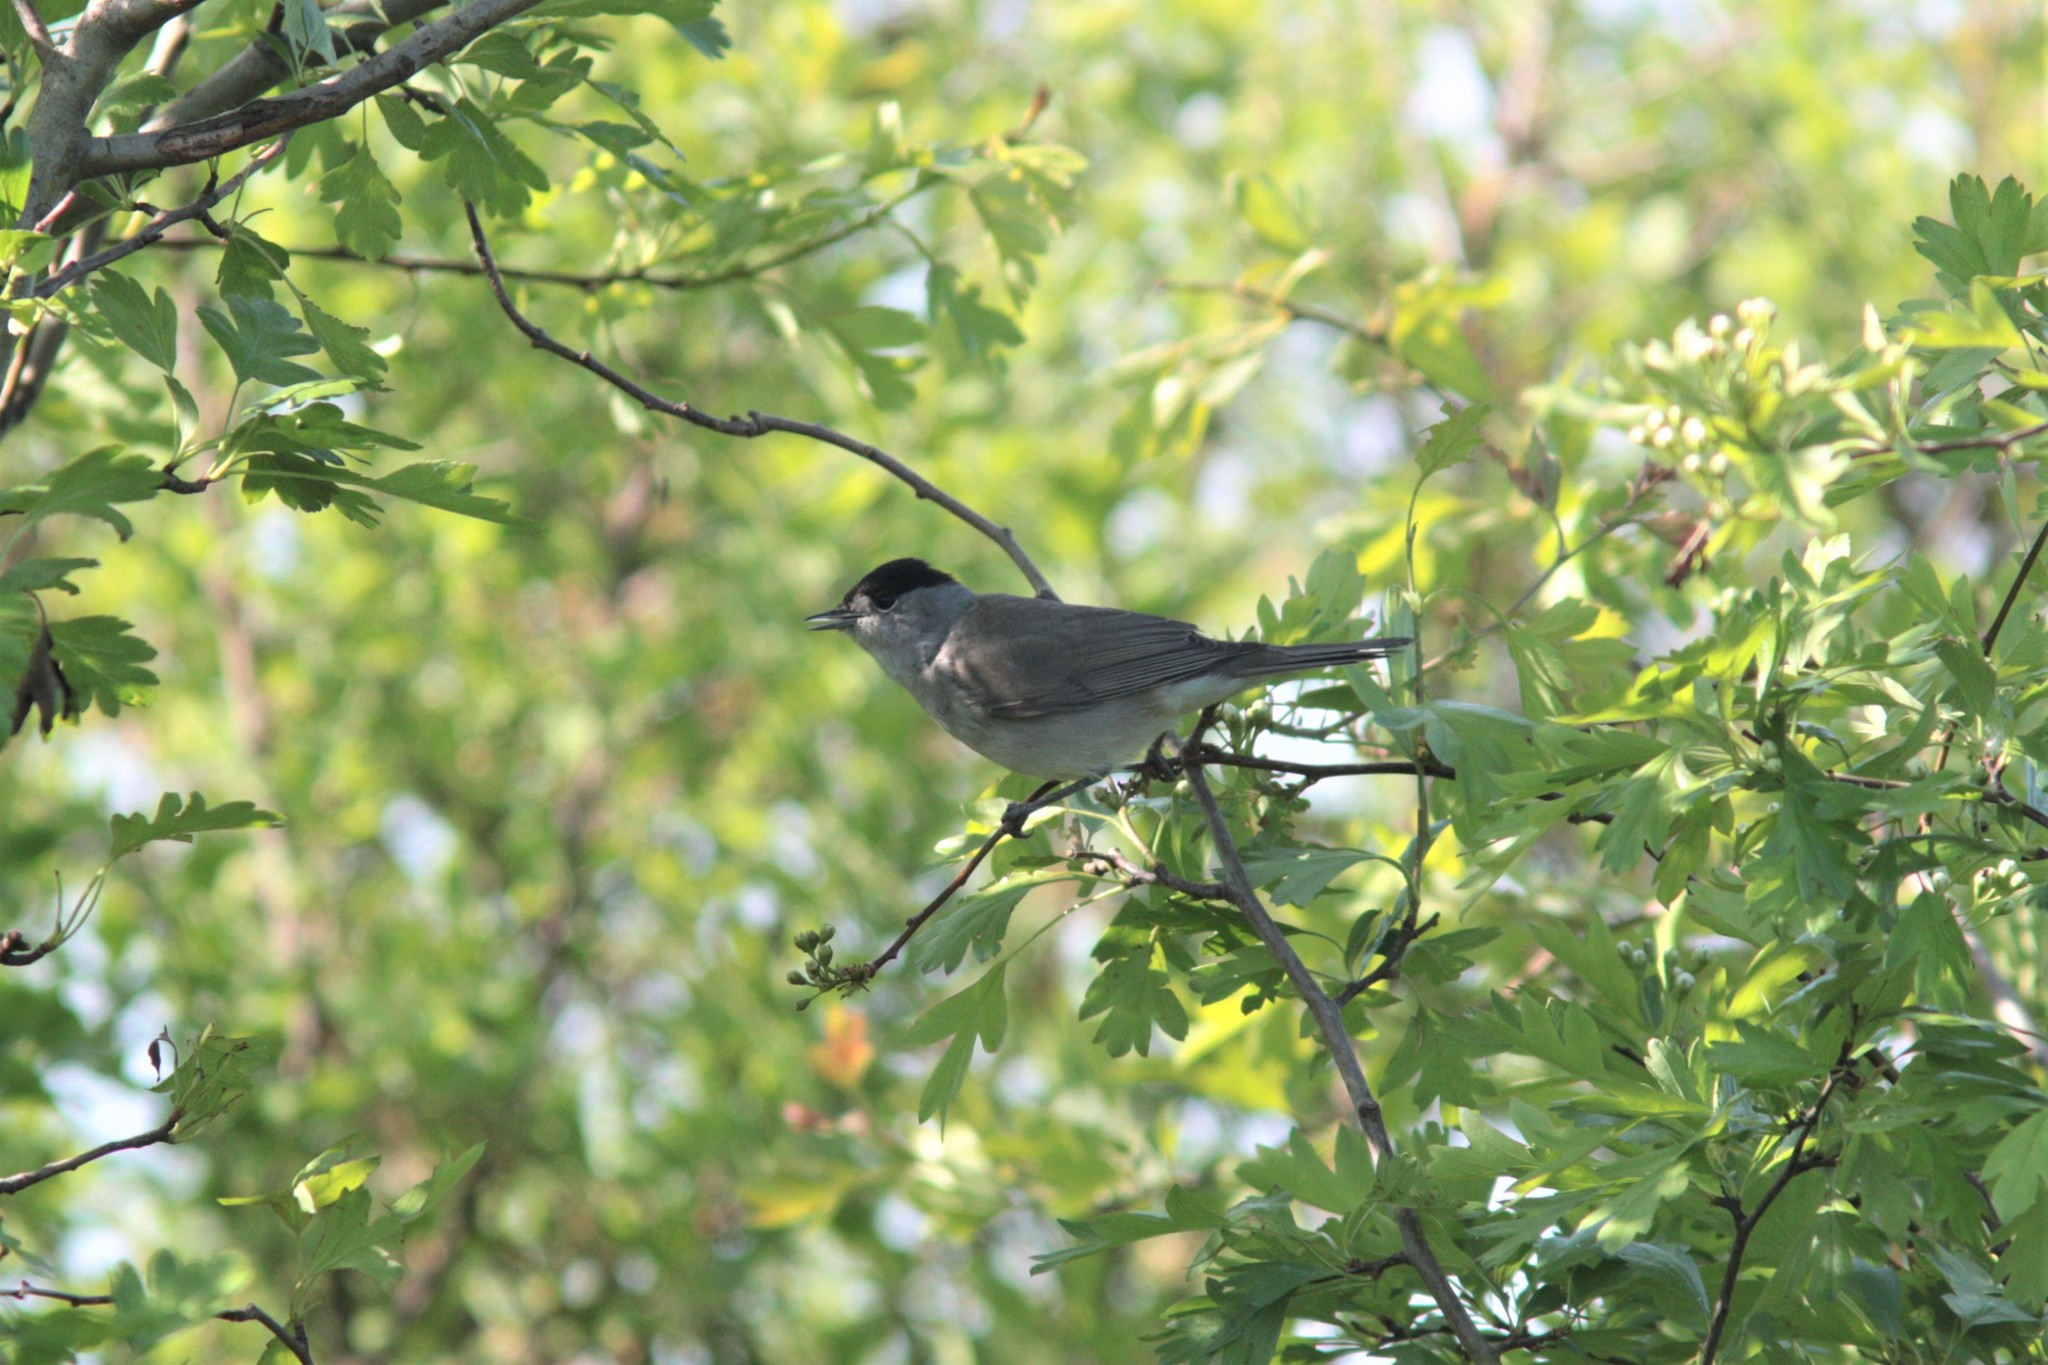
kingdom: Animalia
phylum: Chordata
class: Aves
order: Passeriformes
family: Sylviidae
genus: Sylvia
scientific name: Sylvia atricapilla
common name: Eurasian blackcap
